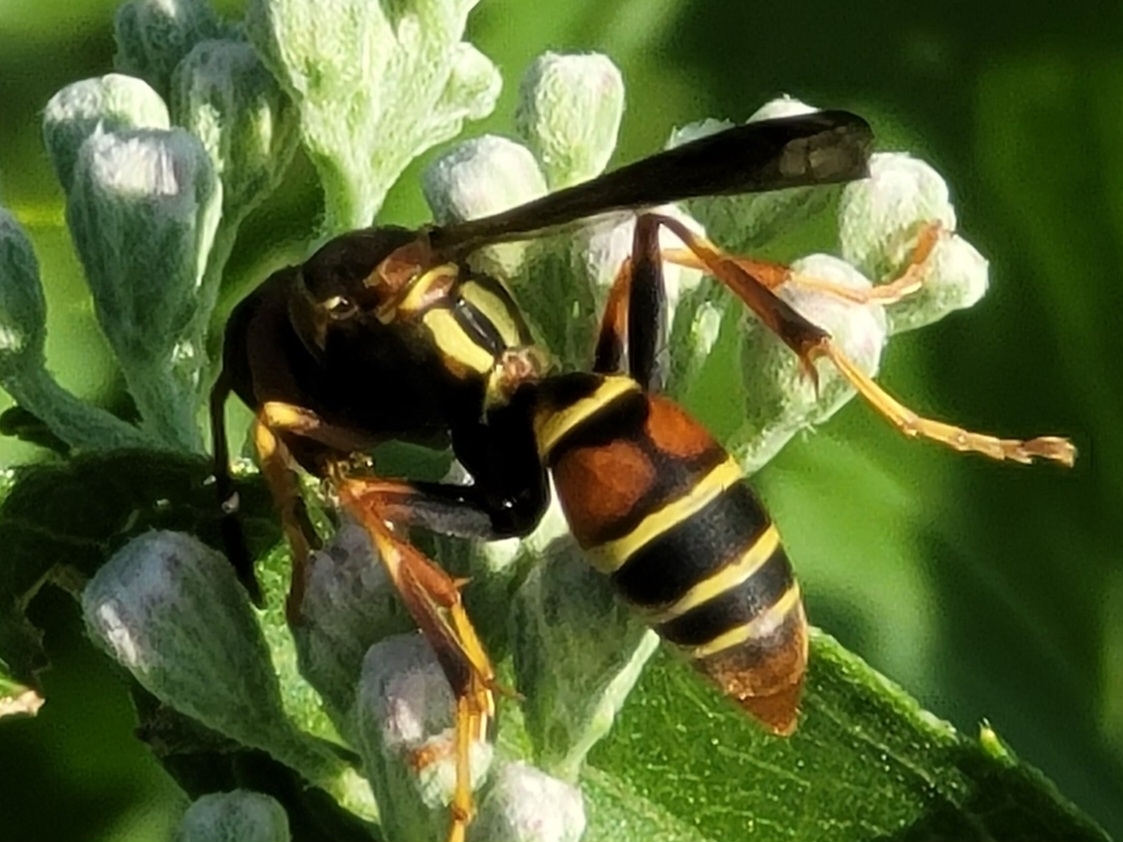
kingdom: Animalia
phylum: Arthropoda
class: Insecta
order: Hymenoptera
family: Eumenidae
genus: Polistes
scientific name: Polistes dorsalis
